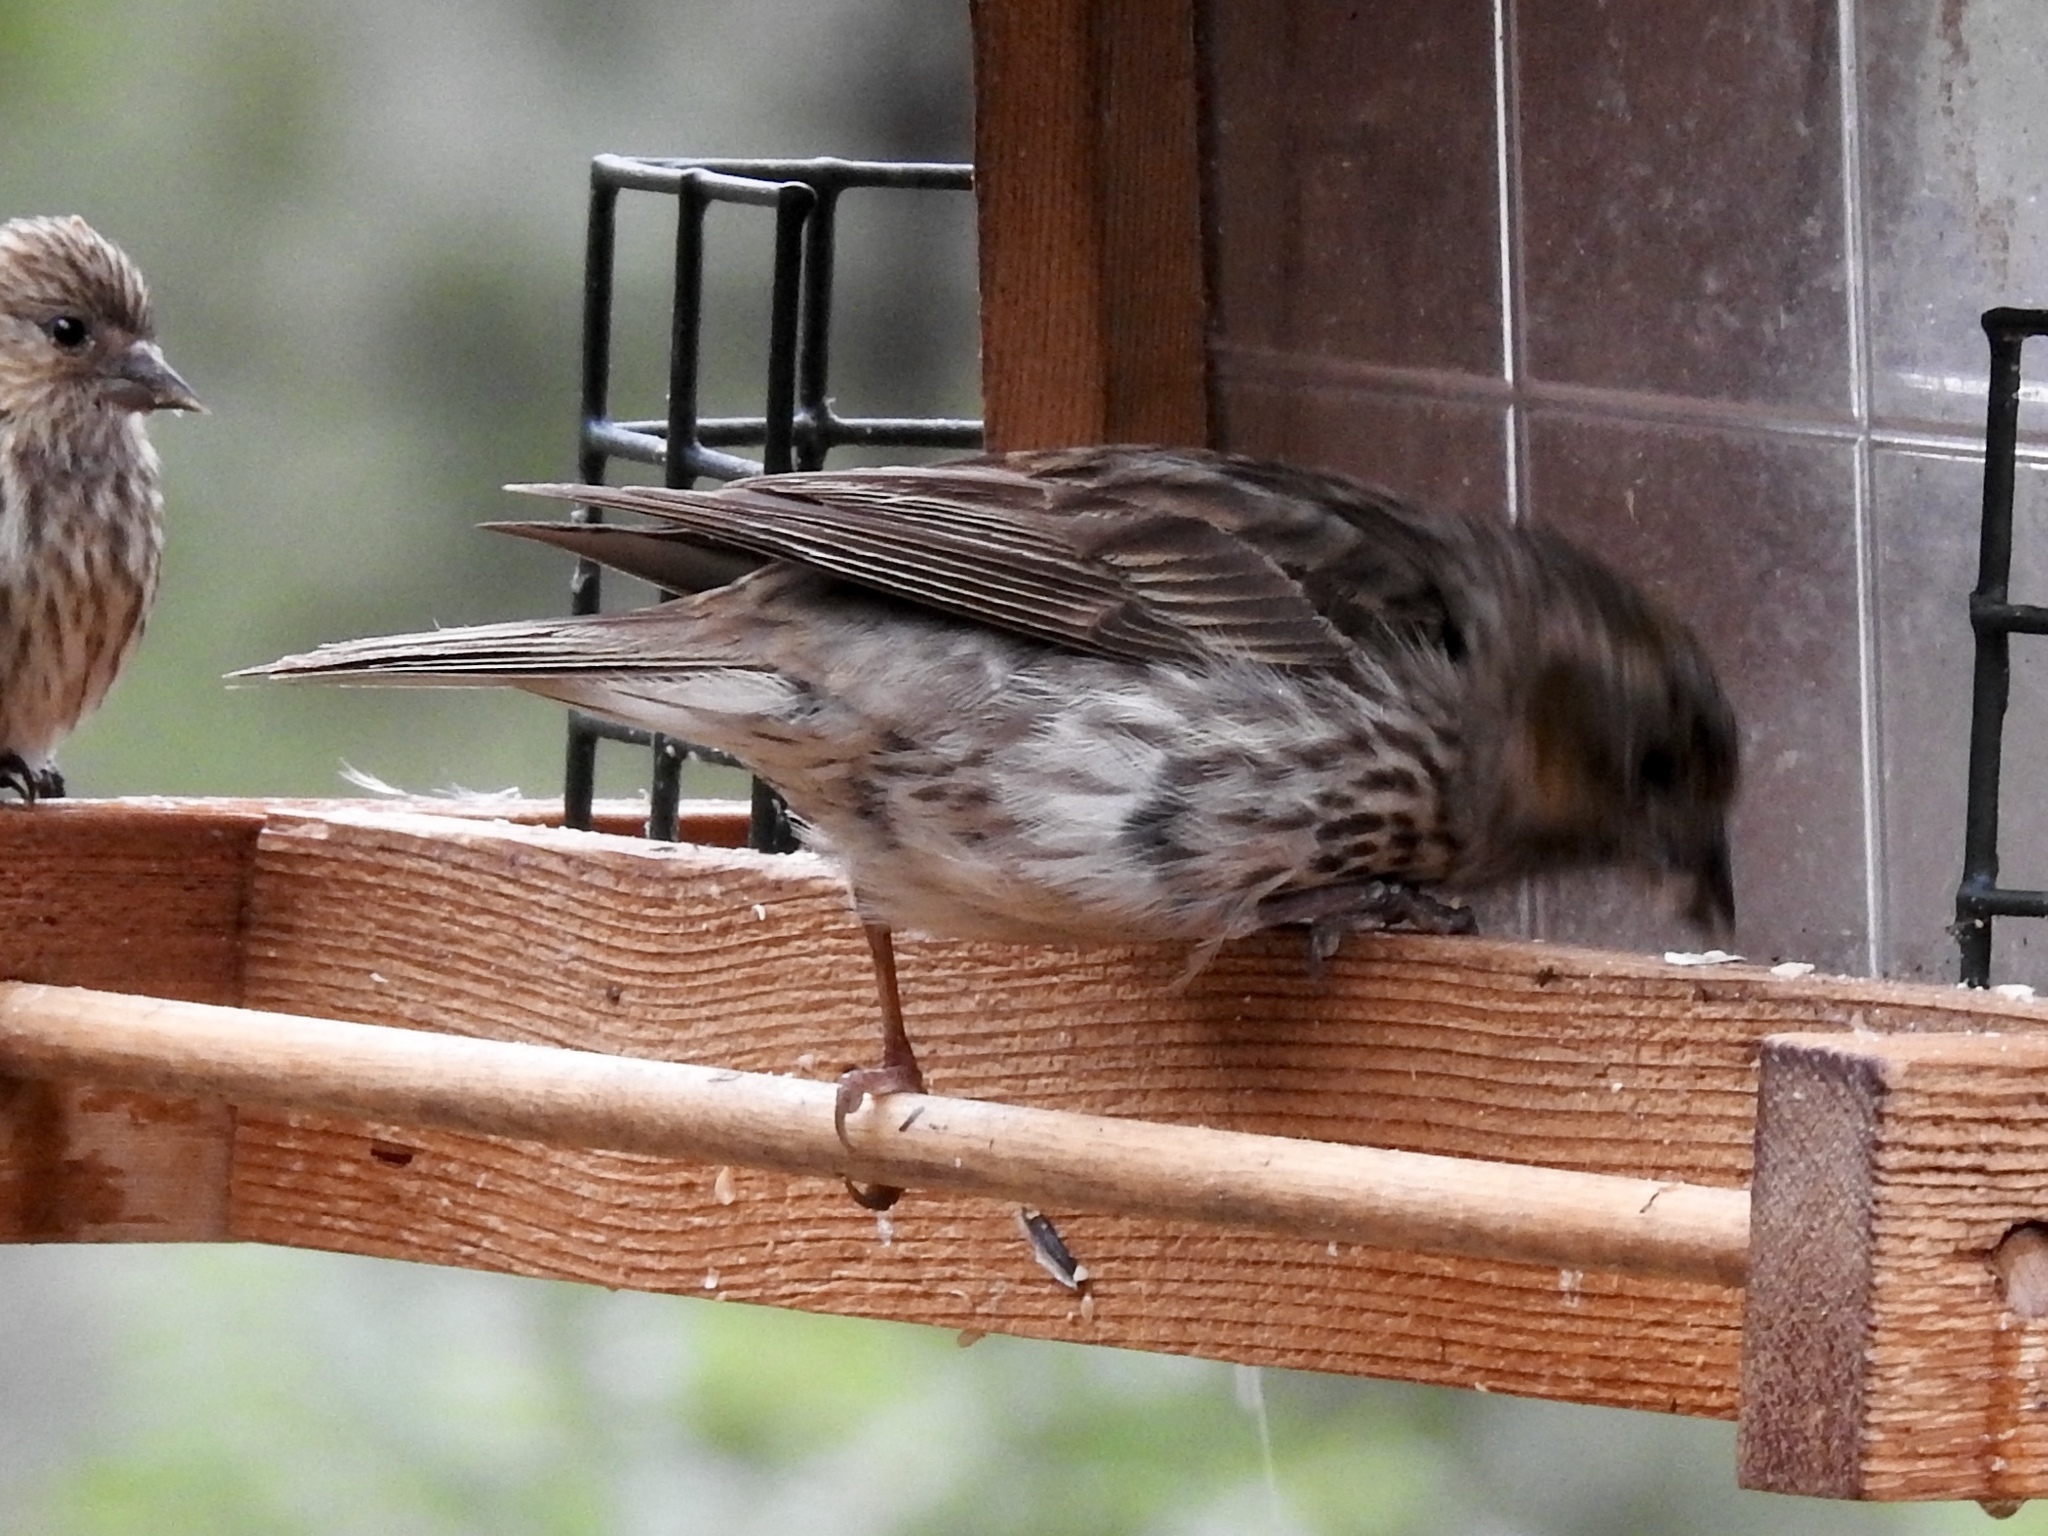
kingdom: Animalia
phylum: Chordata
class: Aves
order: Passeriformes
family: Fringillidae
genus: Spinus
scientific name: Spinus pinus
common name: Pine siskin
